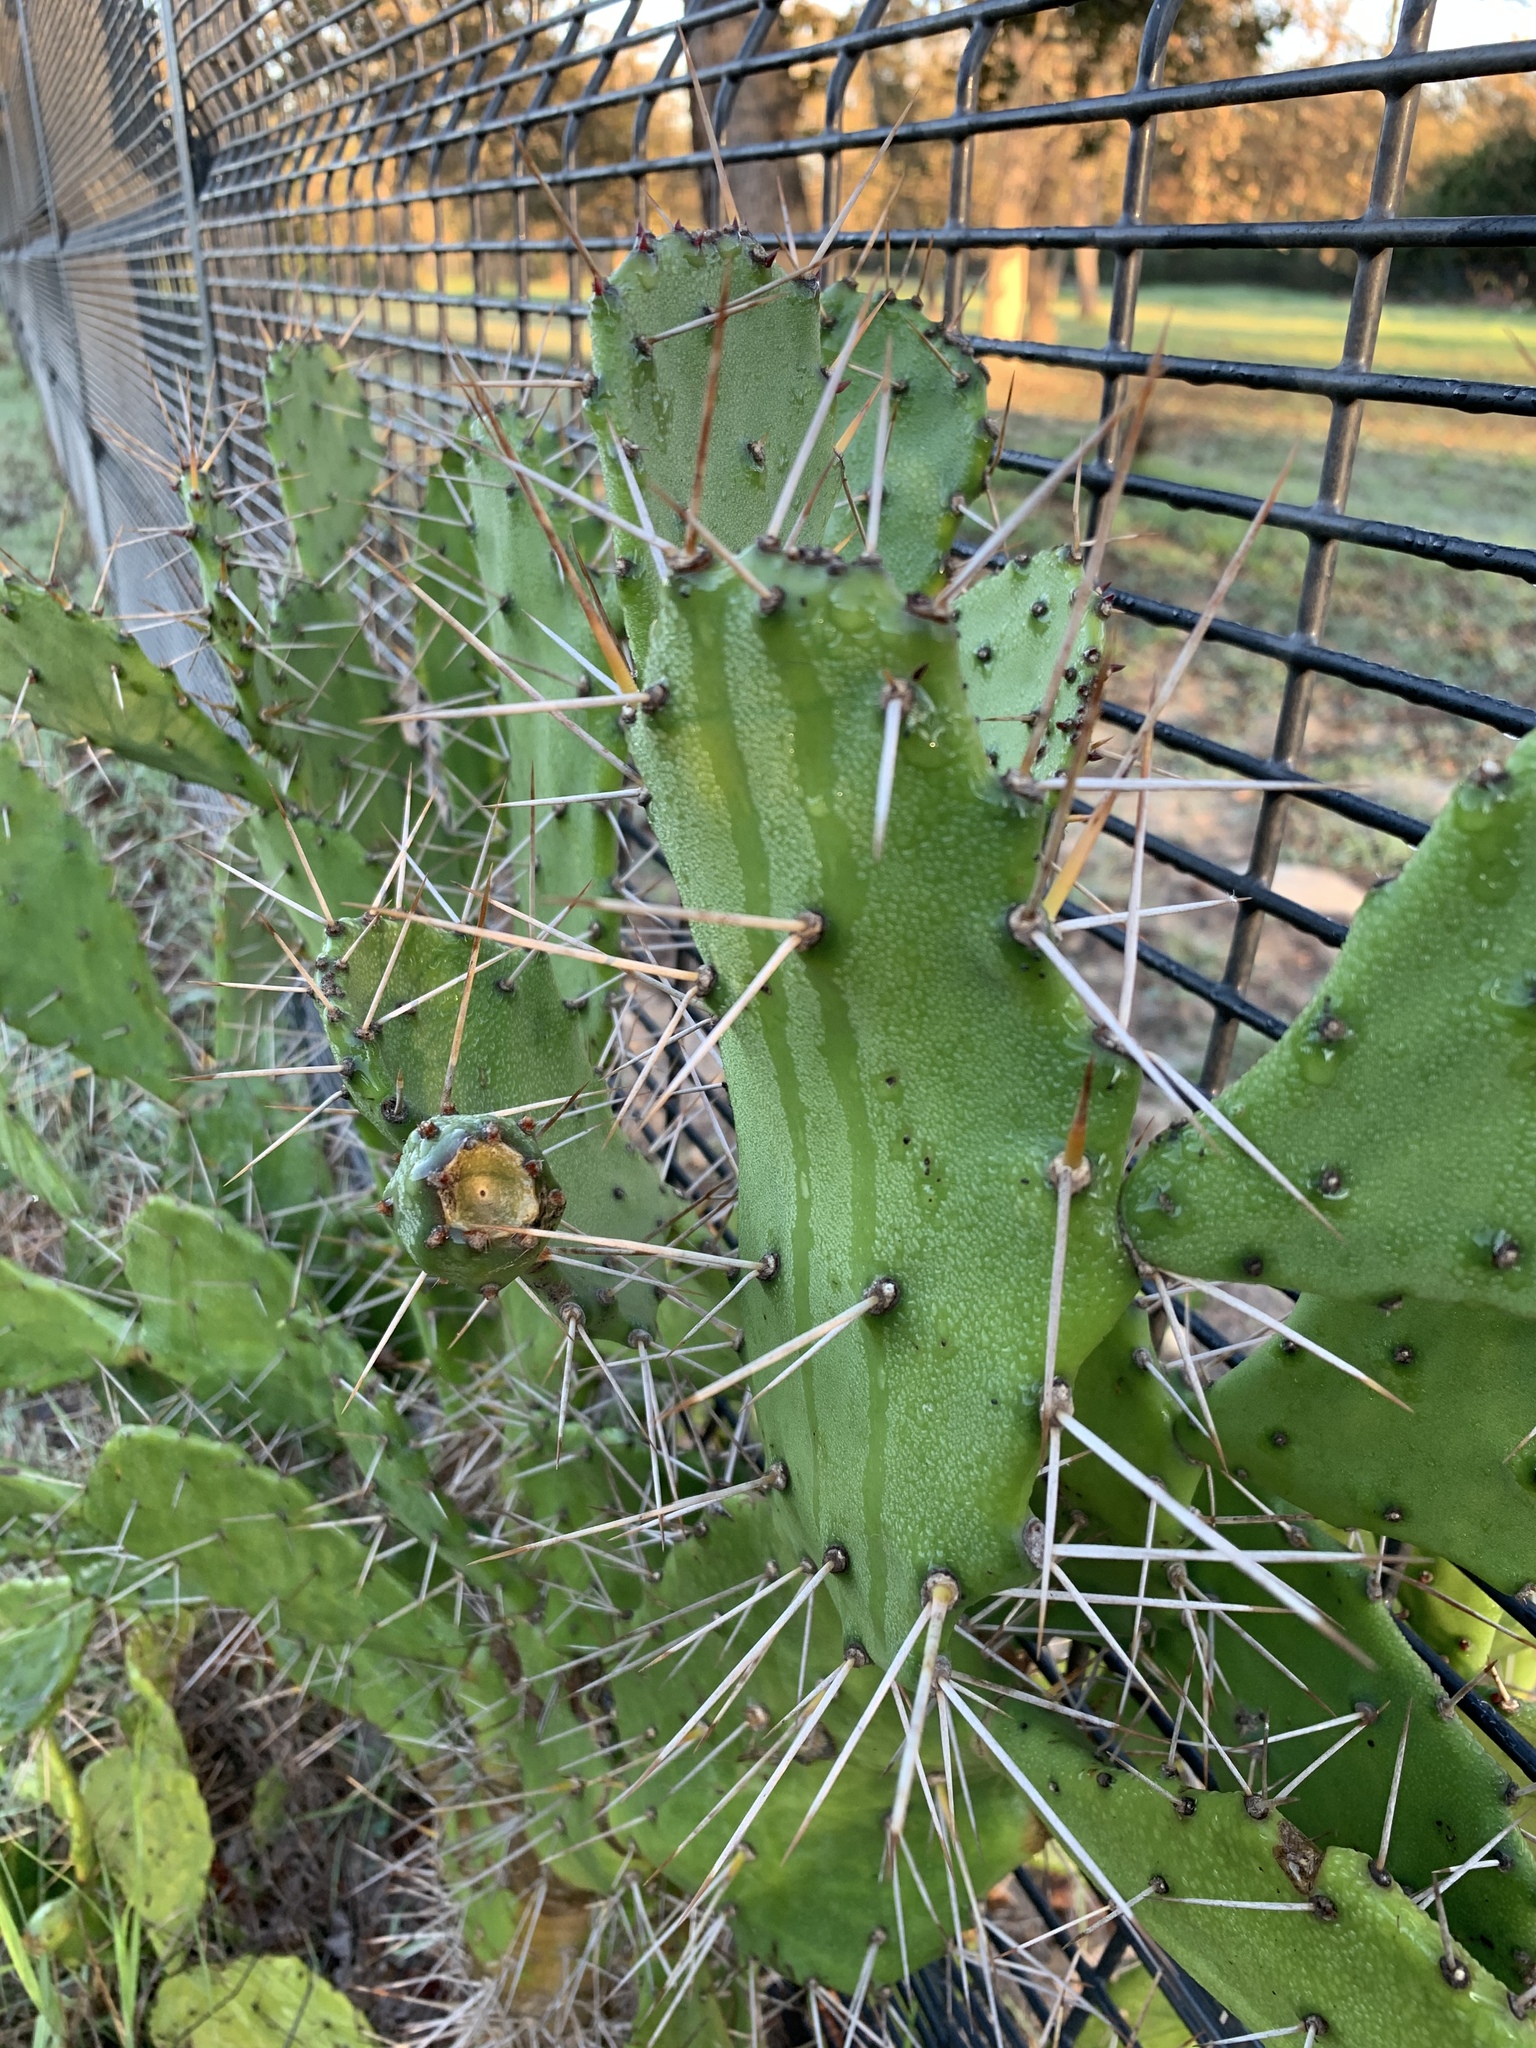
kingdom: Plantae
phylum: Tracheophyta
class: Magnoliopsida
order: Caryophyllales
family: Cactaceae
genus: Opuntia
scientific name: Opuntia monacantha
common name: Common pricklypear
